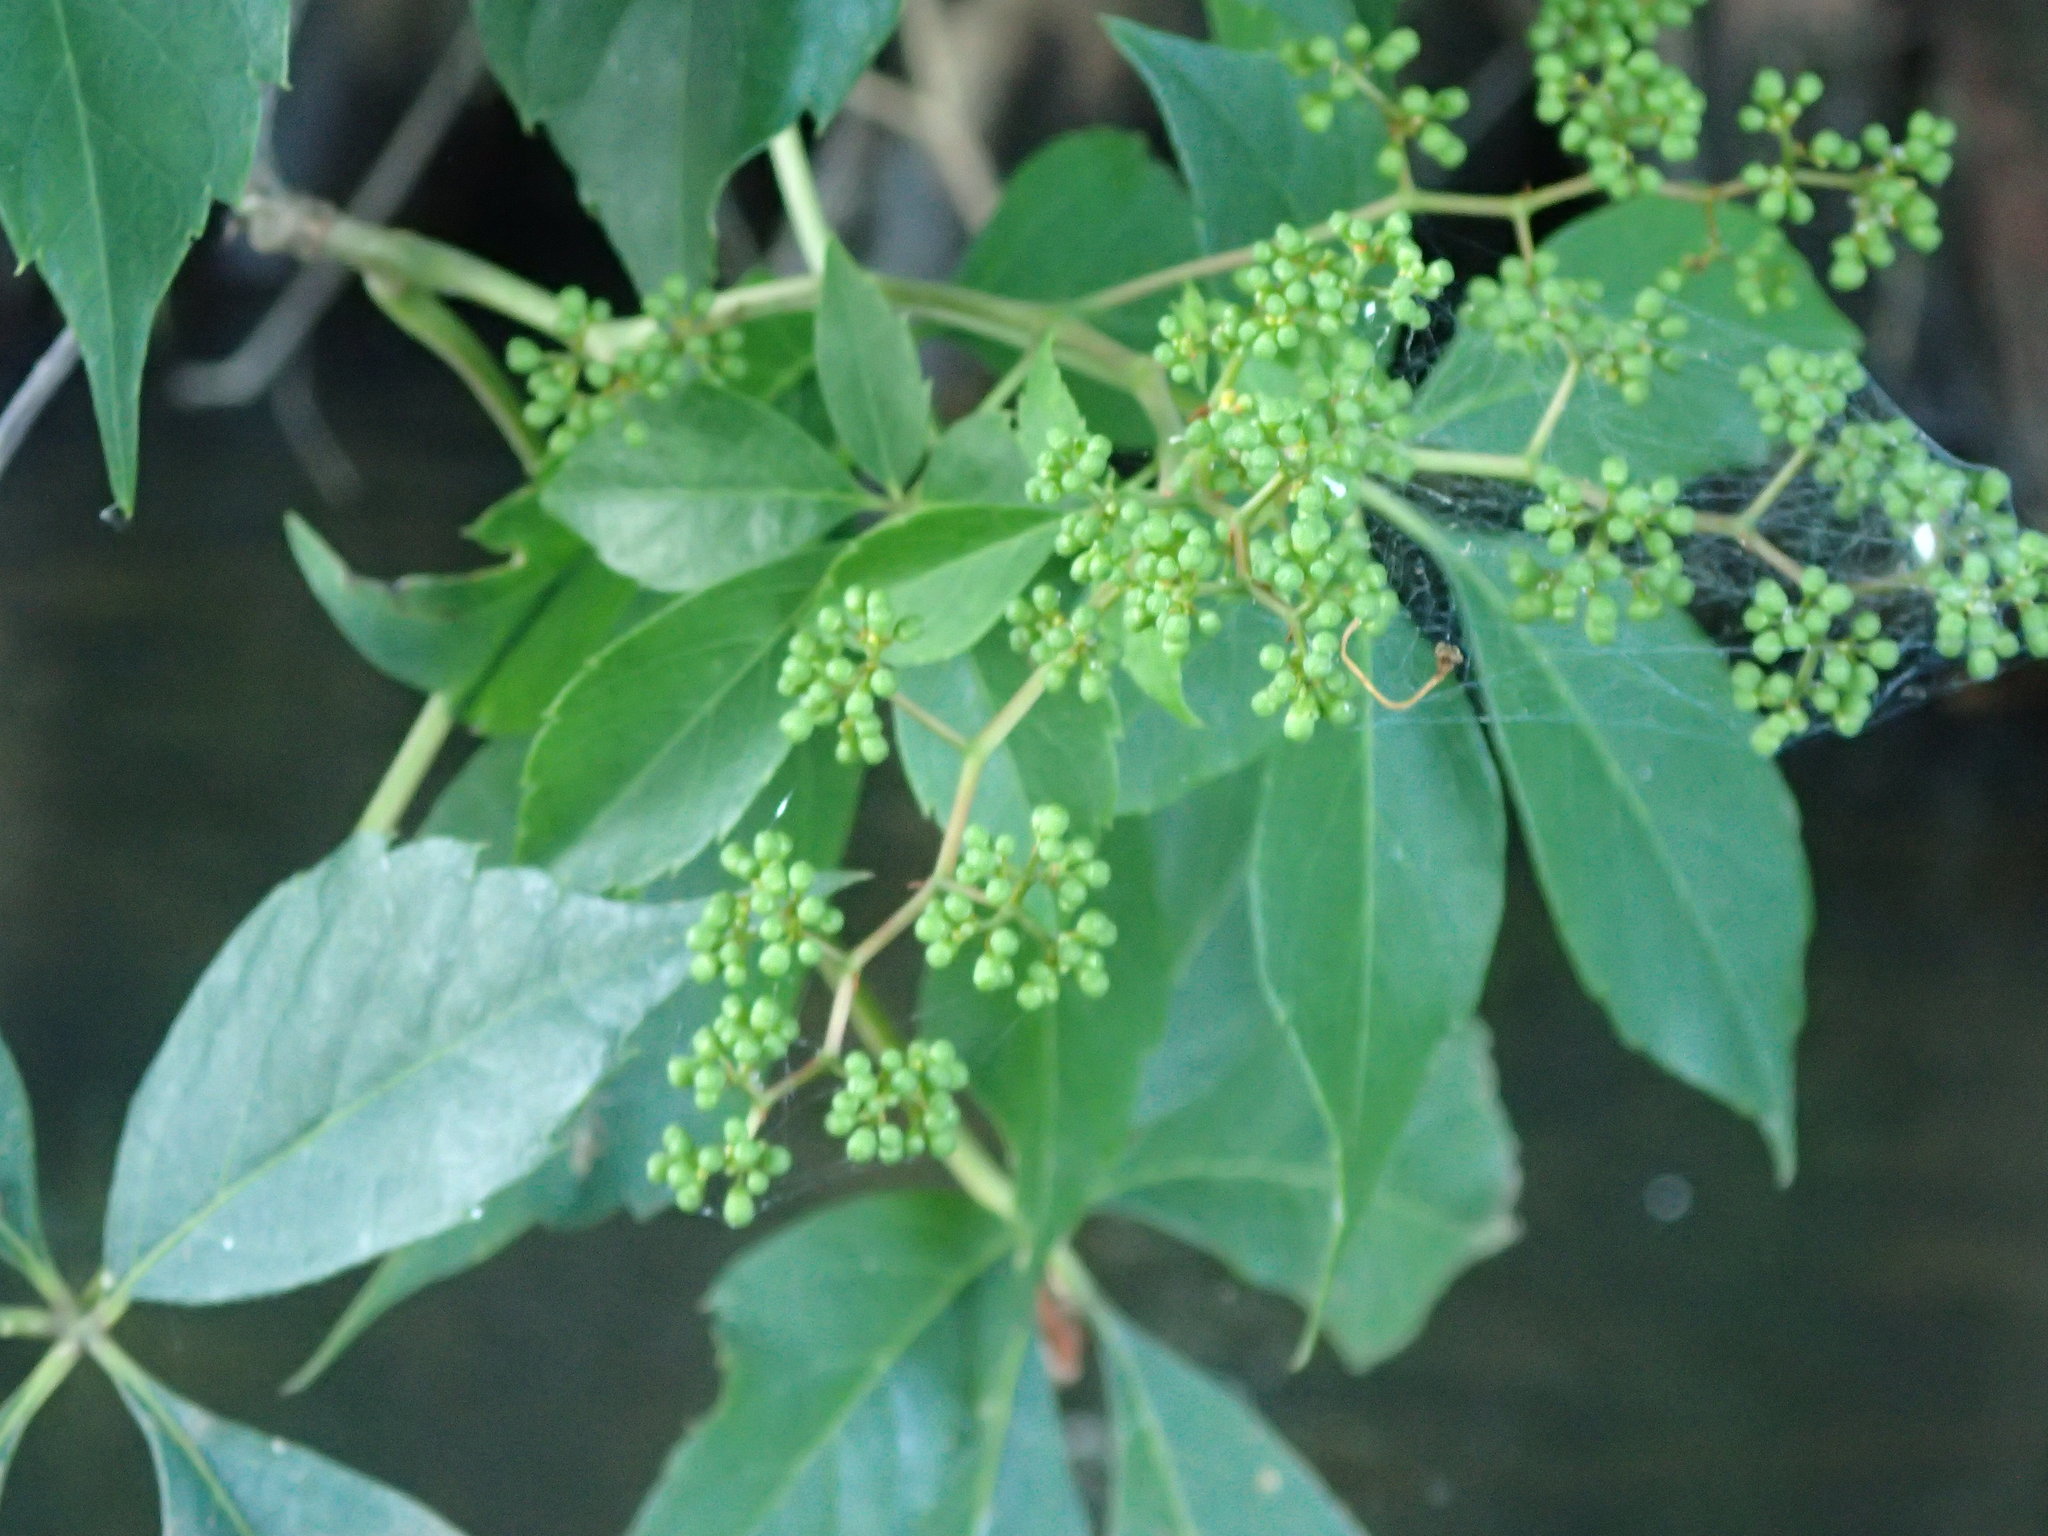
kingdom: Plantae
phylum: Tracheophyta
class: Magnoliopsida
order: Vitales
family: Vitaceae
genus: Parthenocissus
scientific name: Parthenocissus quinquefolia
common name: Virginia-creeper
